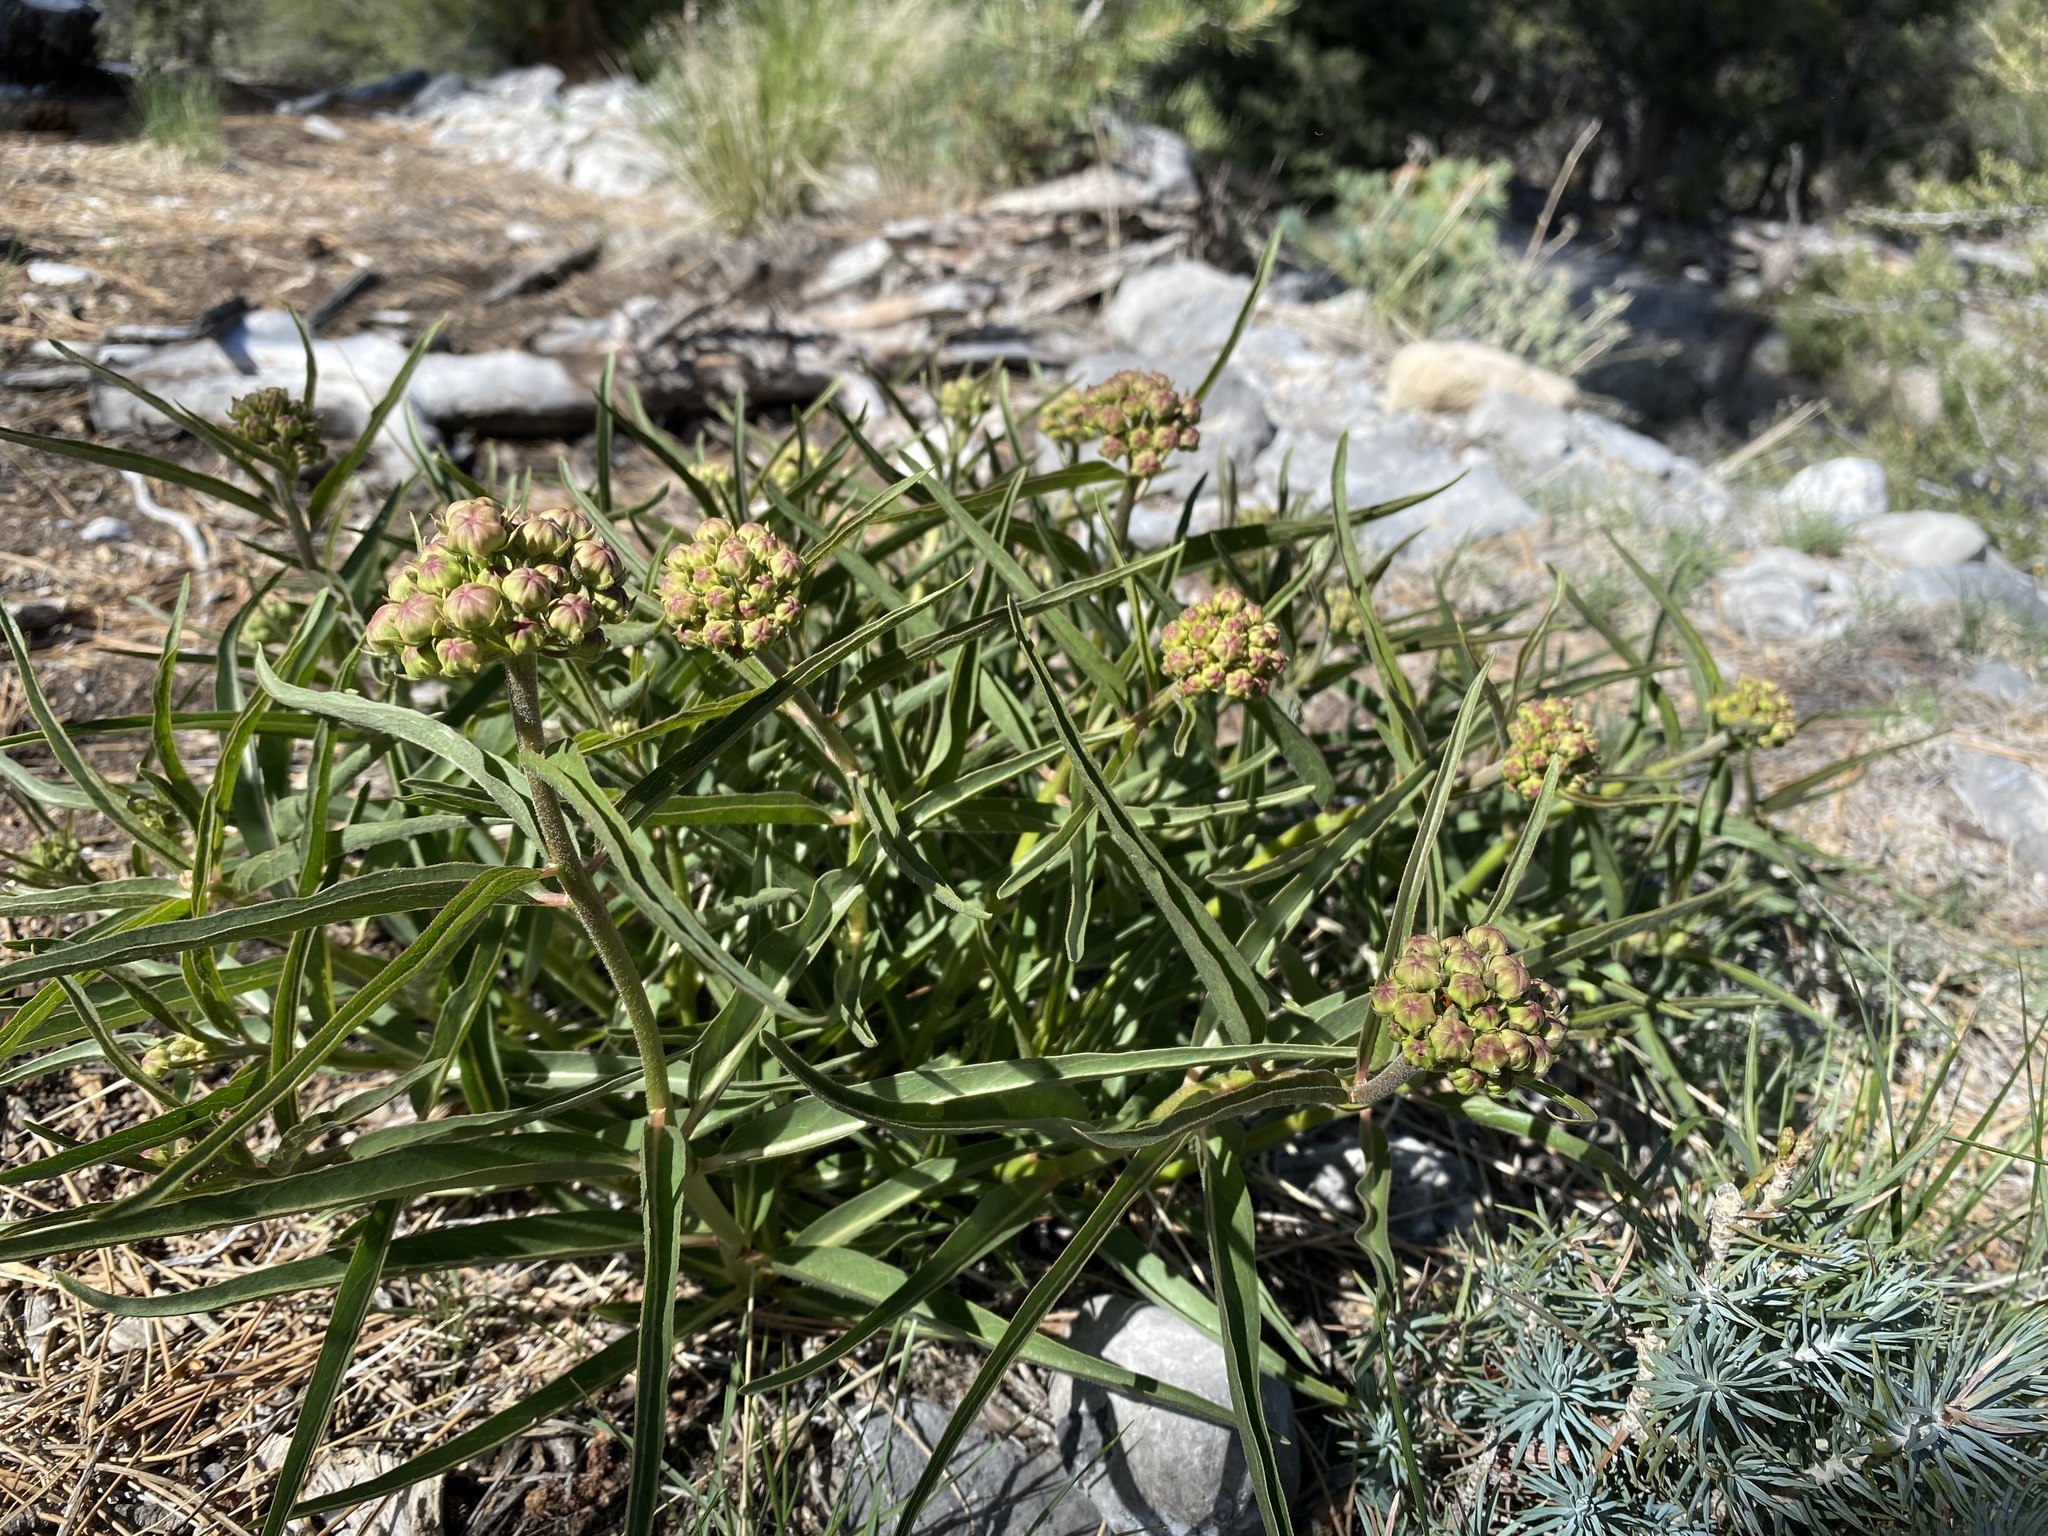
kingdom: Plantae
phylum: Tracheophyta
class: Magnoliopsida
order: Gentianales
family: Apocynaceae
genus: Asclepias
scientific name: Asclepias asperula
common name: Antelope horns
